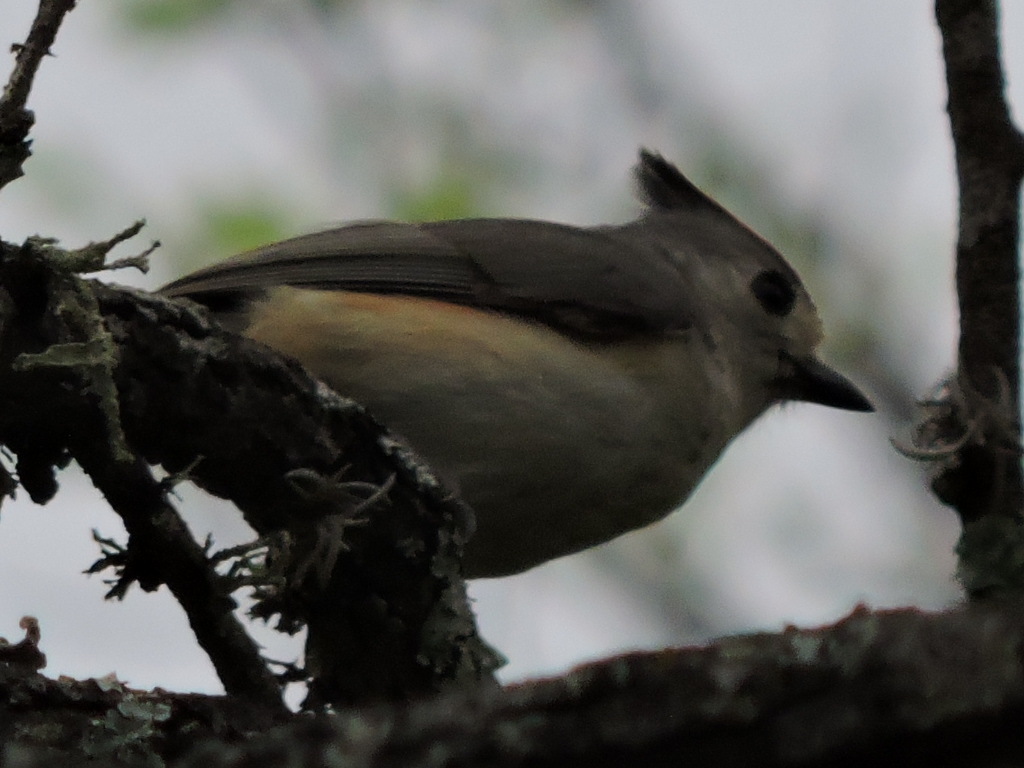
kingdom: Animalia
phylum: Chordata
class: Aves
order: Passeriformes
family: Paridae
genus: Baeolophus
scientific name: Baeolophus atricristatus
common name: Black-crested titmouse
